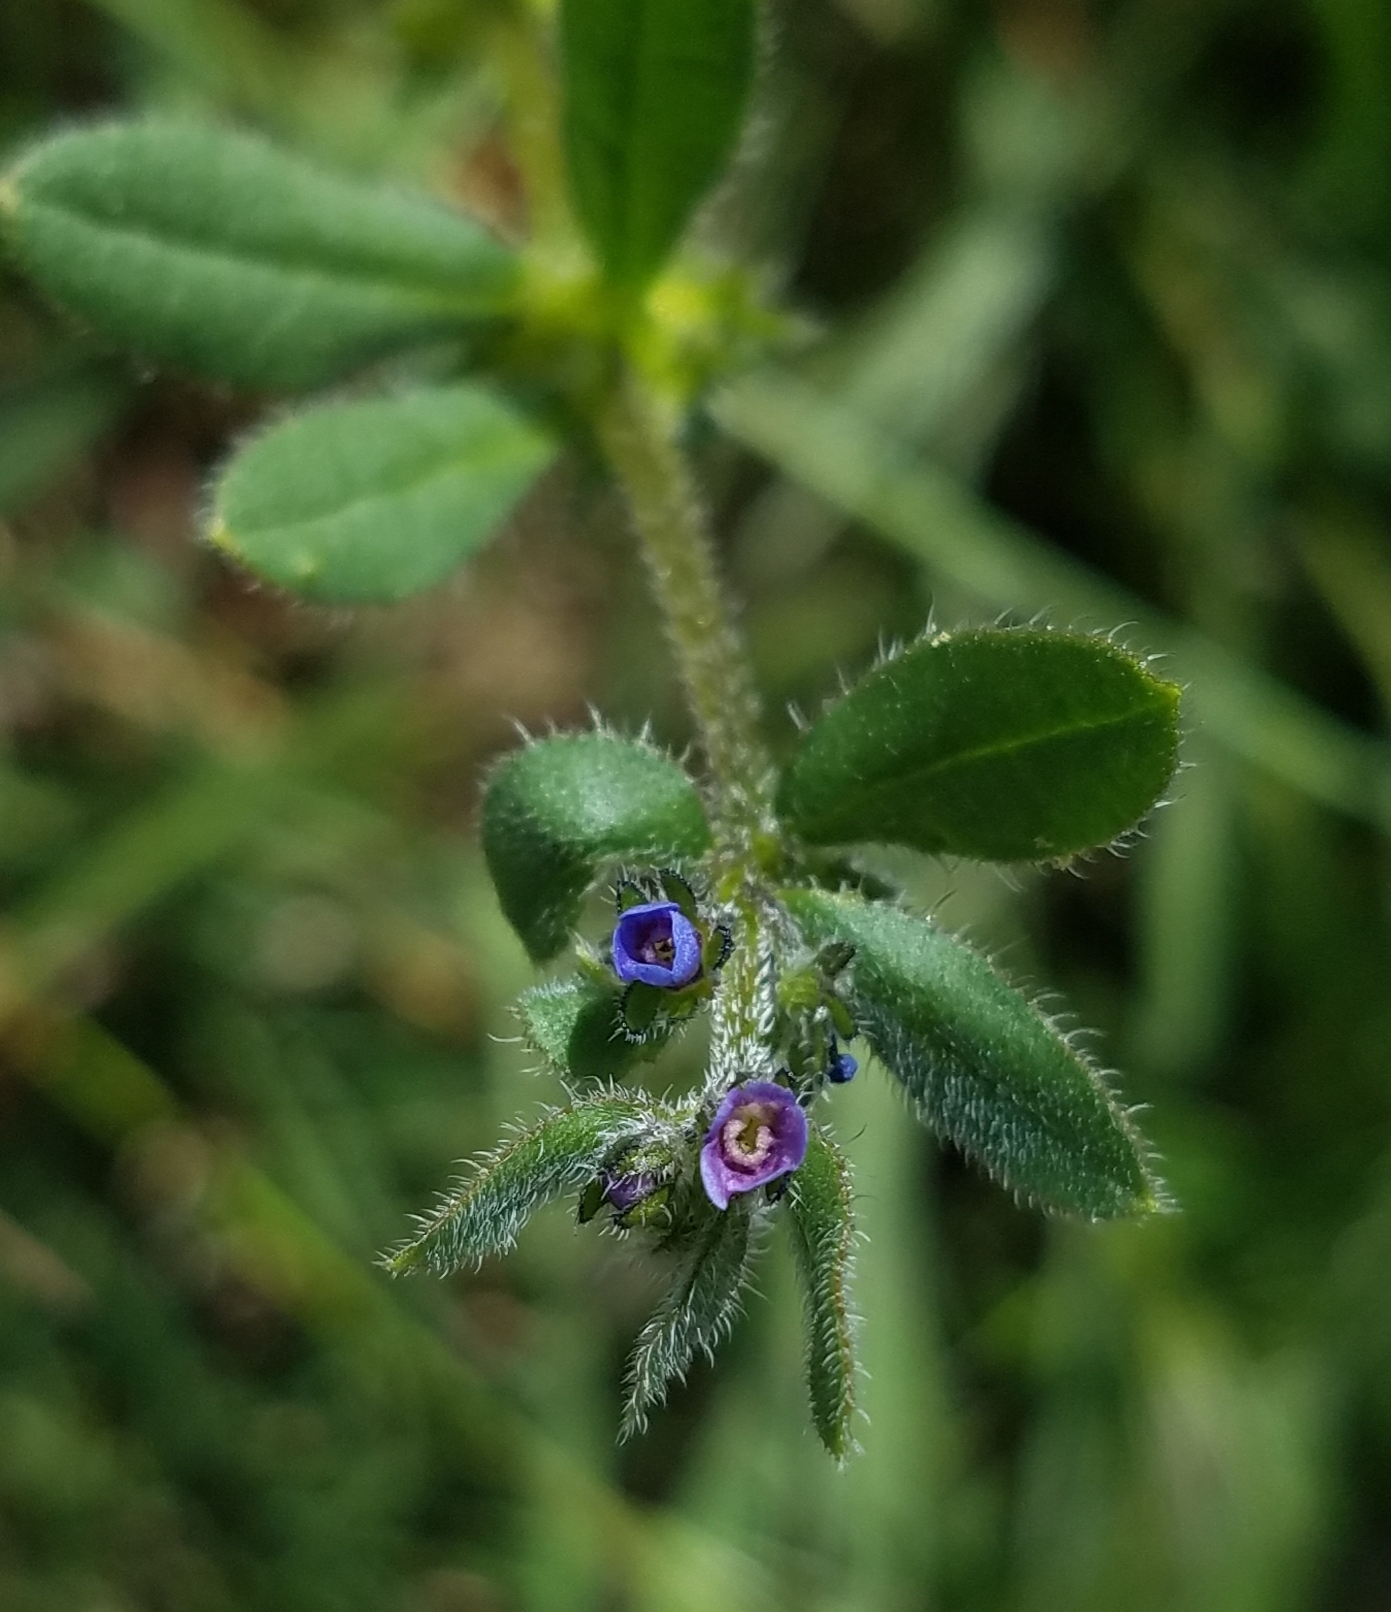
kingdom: Plantae
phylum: Tracheophyta
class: Magnoliopsida
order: Boraginales
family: Boraginaceae
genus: Asperugo
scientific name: Asperugo procumbens
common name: Madwort
